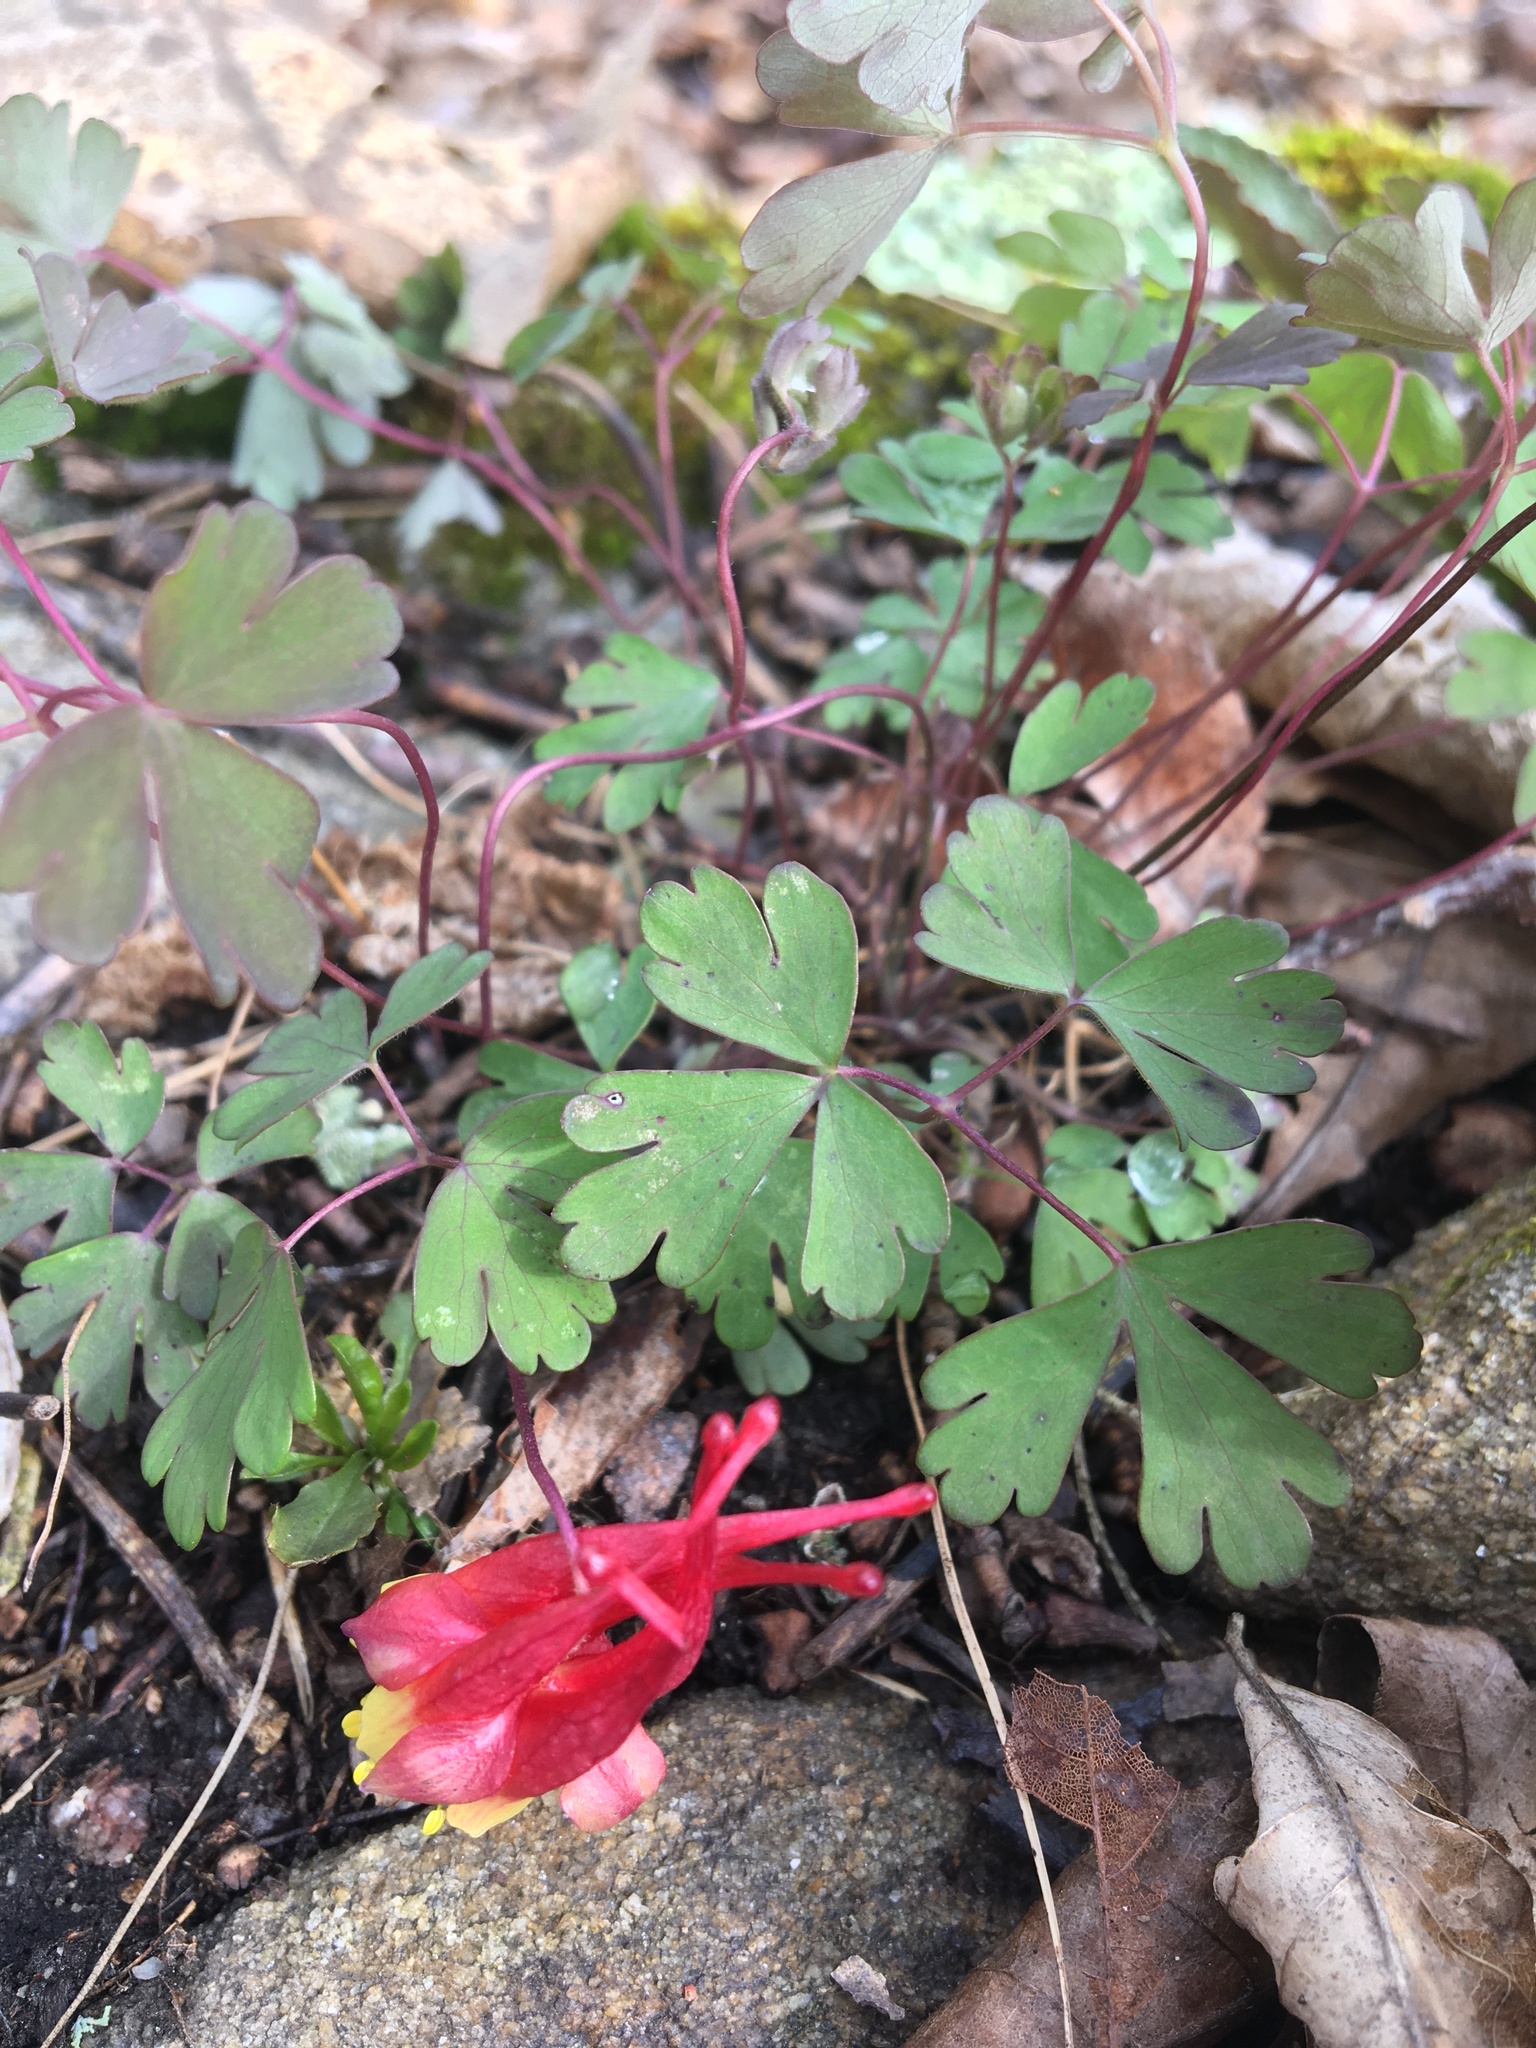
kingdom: Plantae
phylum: Tracheophyta
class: Magnoliopsida
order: Ranunculales
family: Ranunculaceae
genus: Aquilegia
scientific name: Aquilegia canadensis
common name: American columbine
